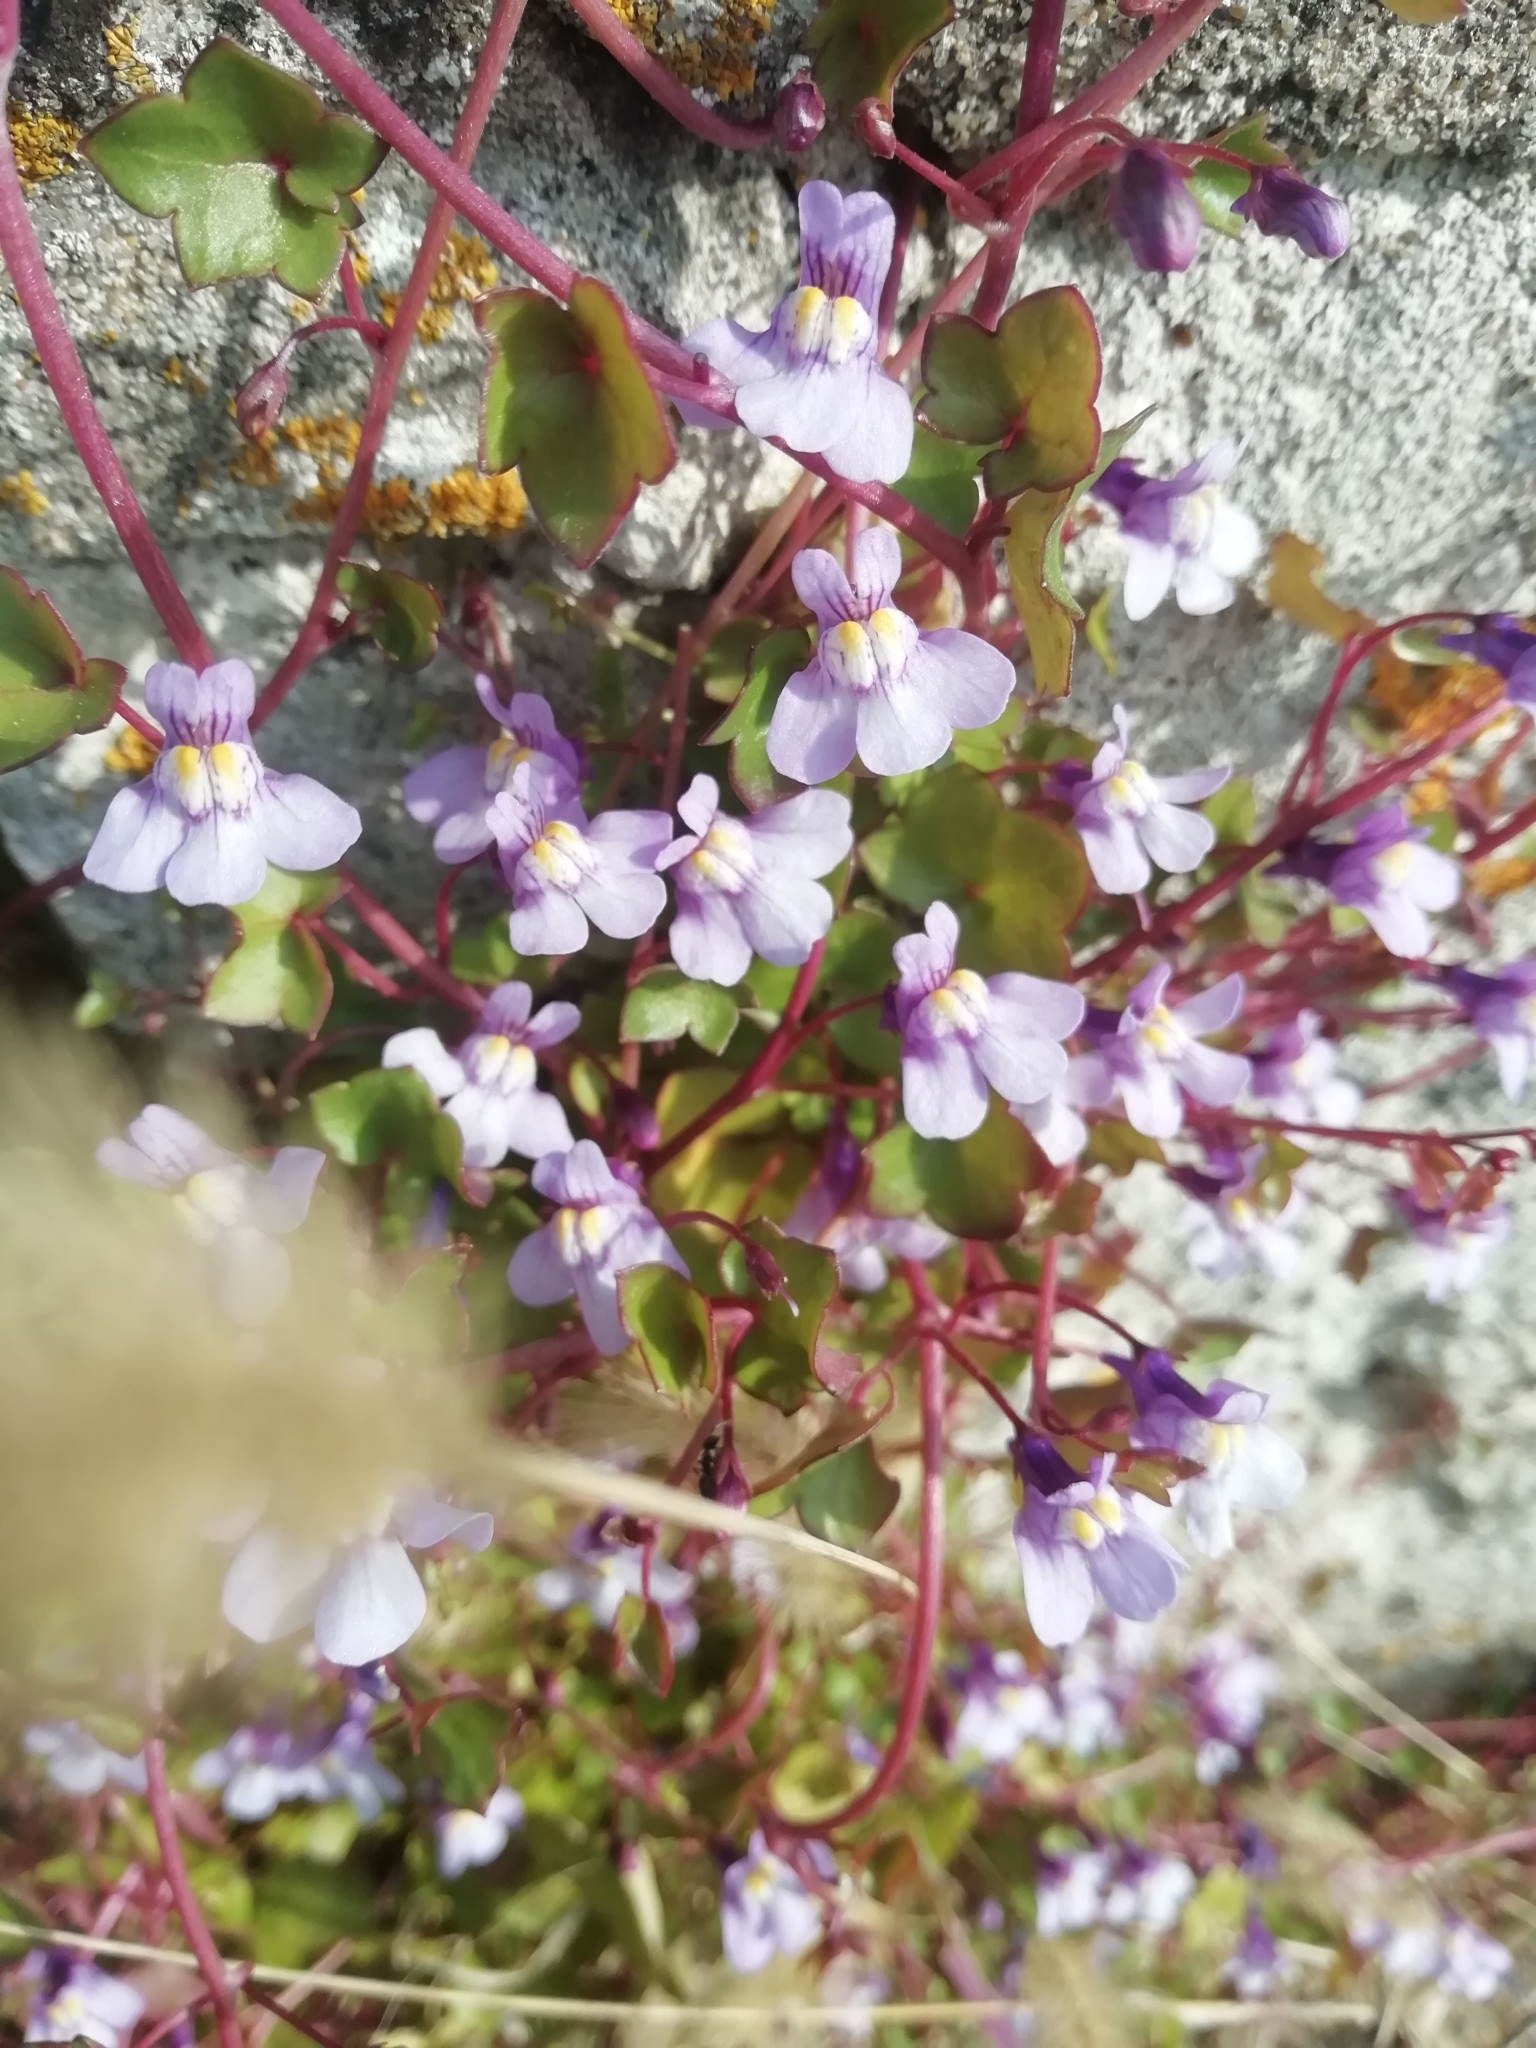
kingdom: Plantae
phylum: Tracheophyta
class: Magnoliopsida
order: Lamiales
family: Plantaginaceae
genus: Cymbalaria
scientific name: Cymbalaria muralis
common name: Ivy-leaved toadflax
